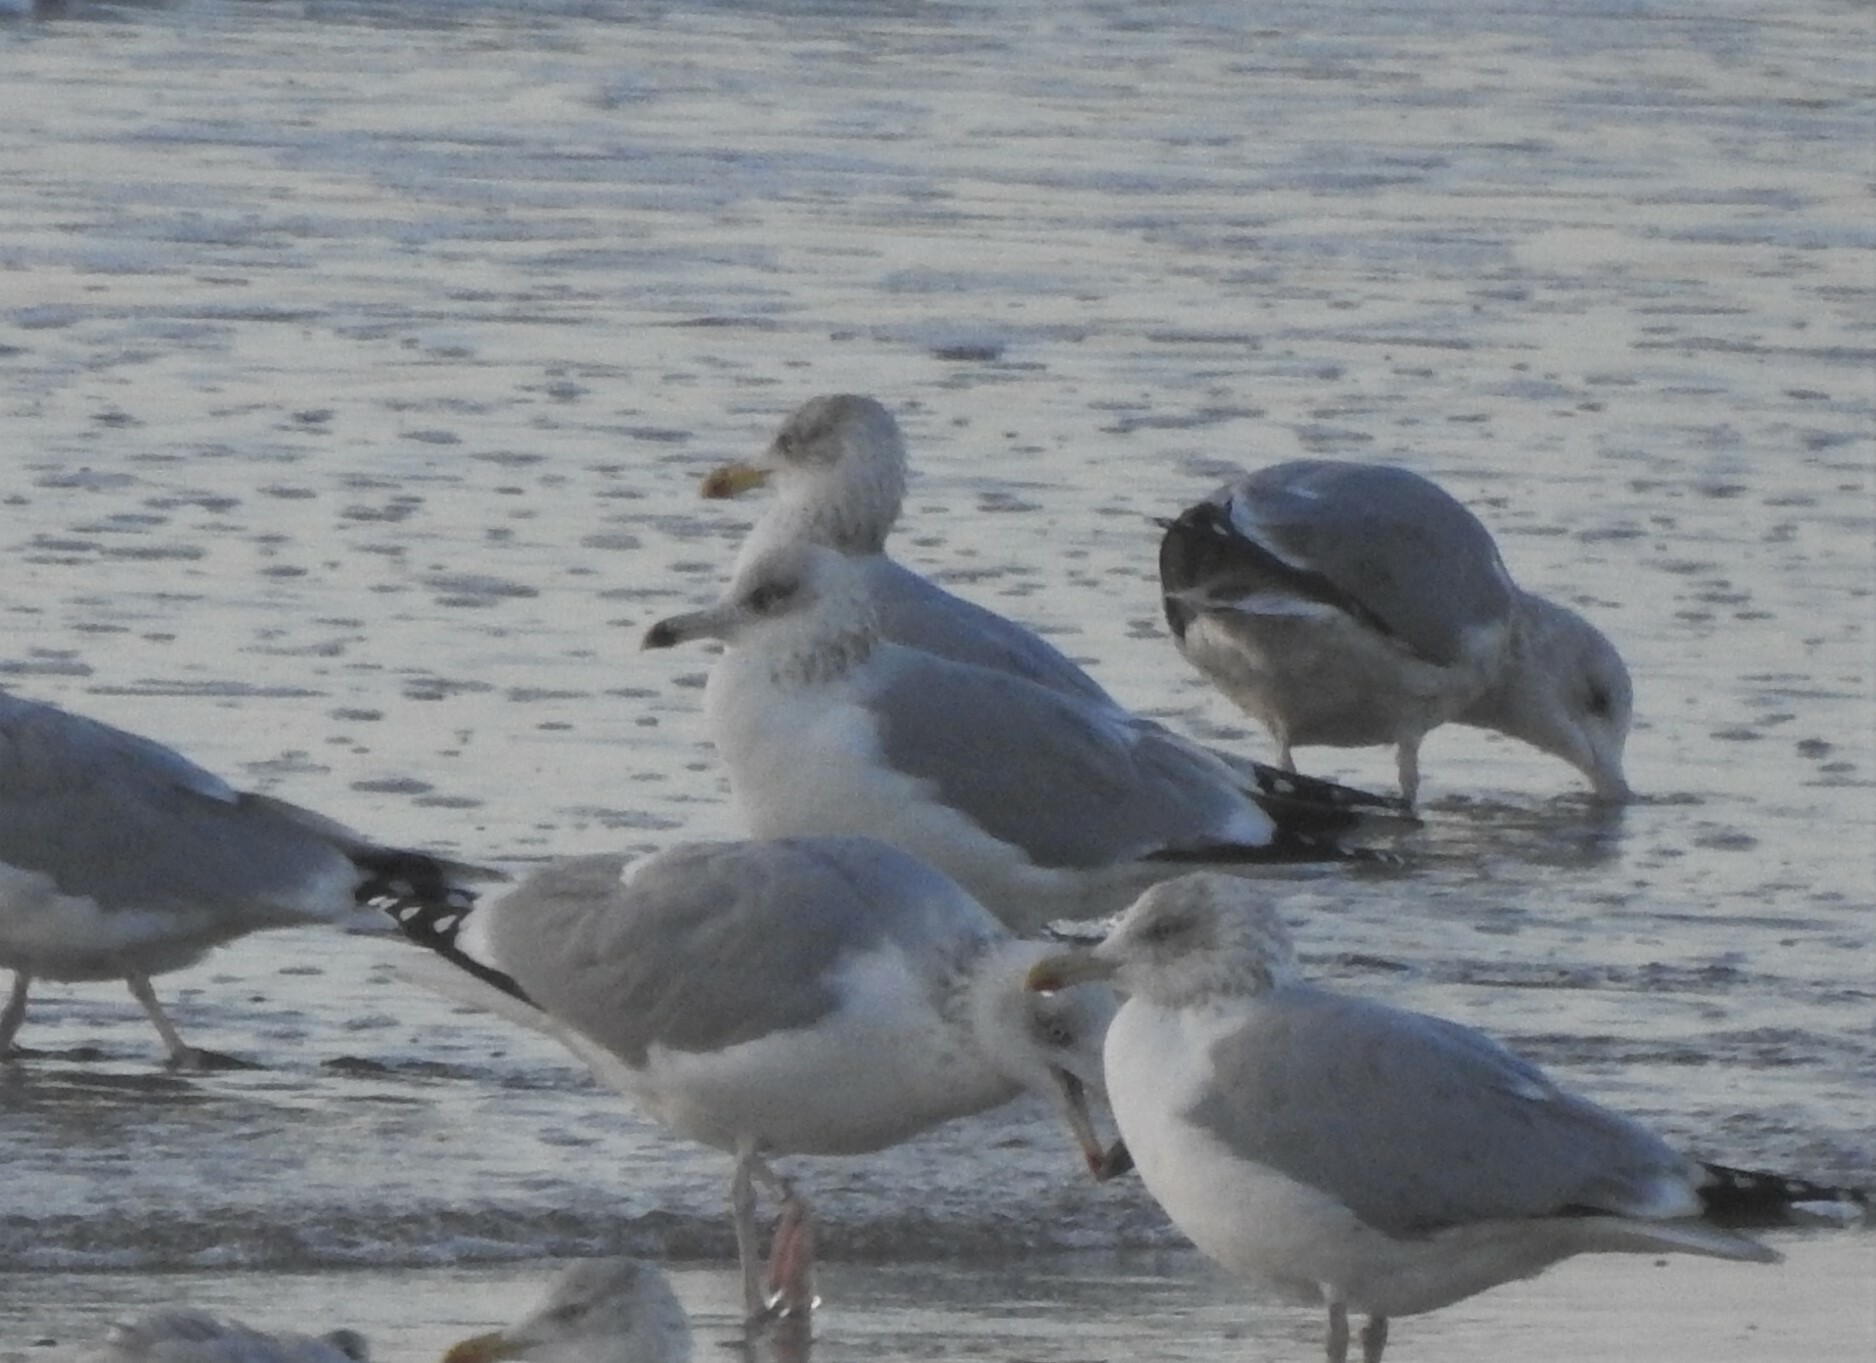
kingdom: Animalia
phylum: Chordata
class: Aves
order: Charadriiformes
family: Laridae
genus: Larus
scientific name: Larus argentatus
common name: Herring gull
